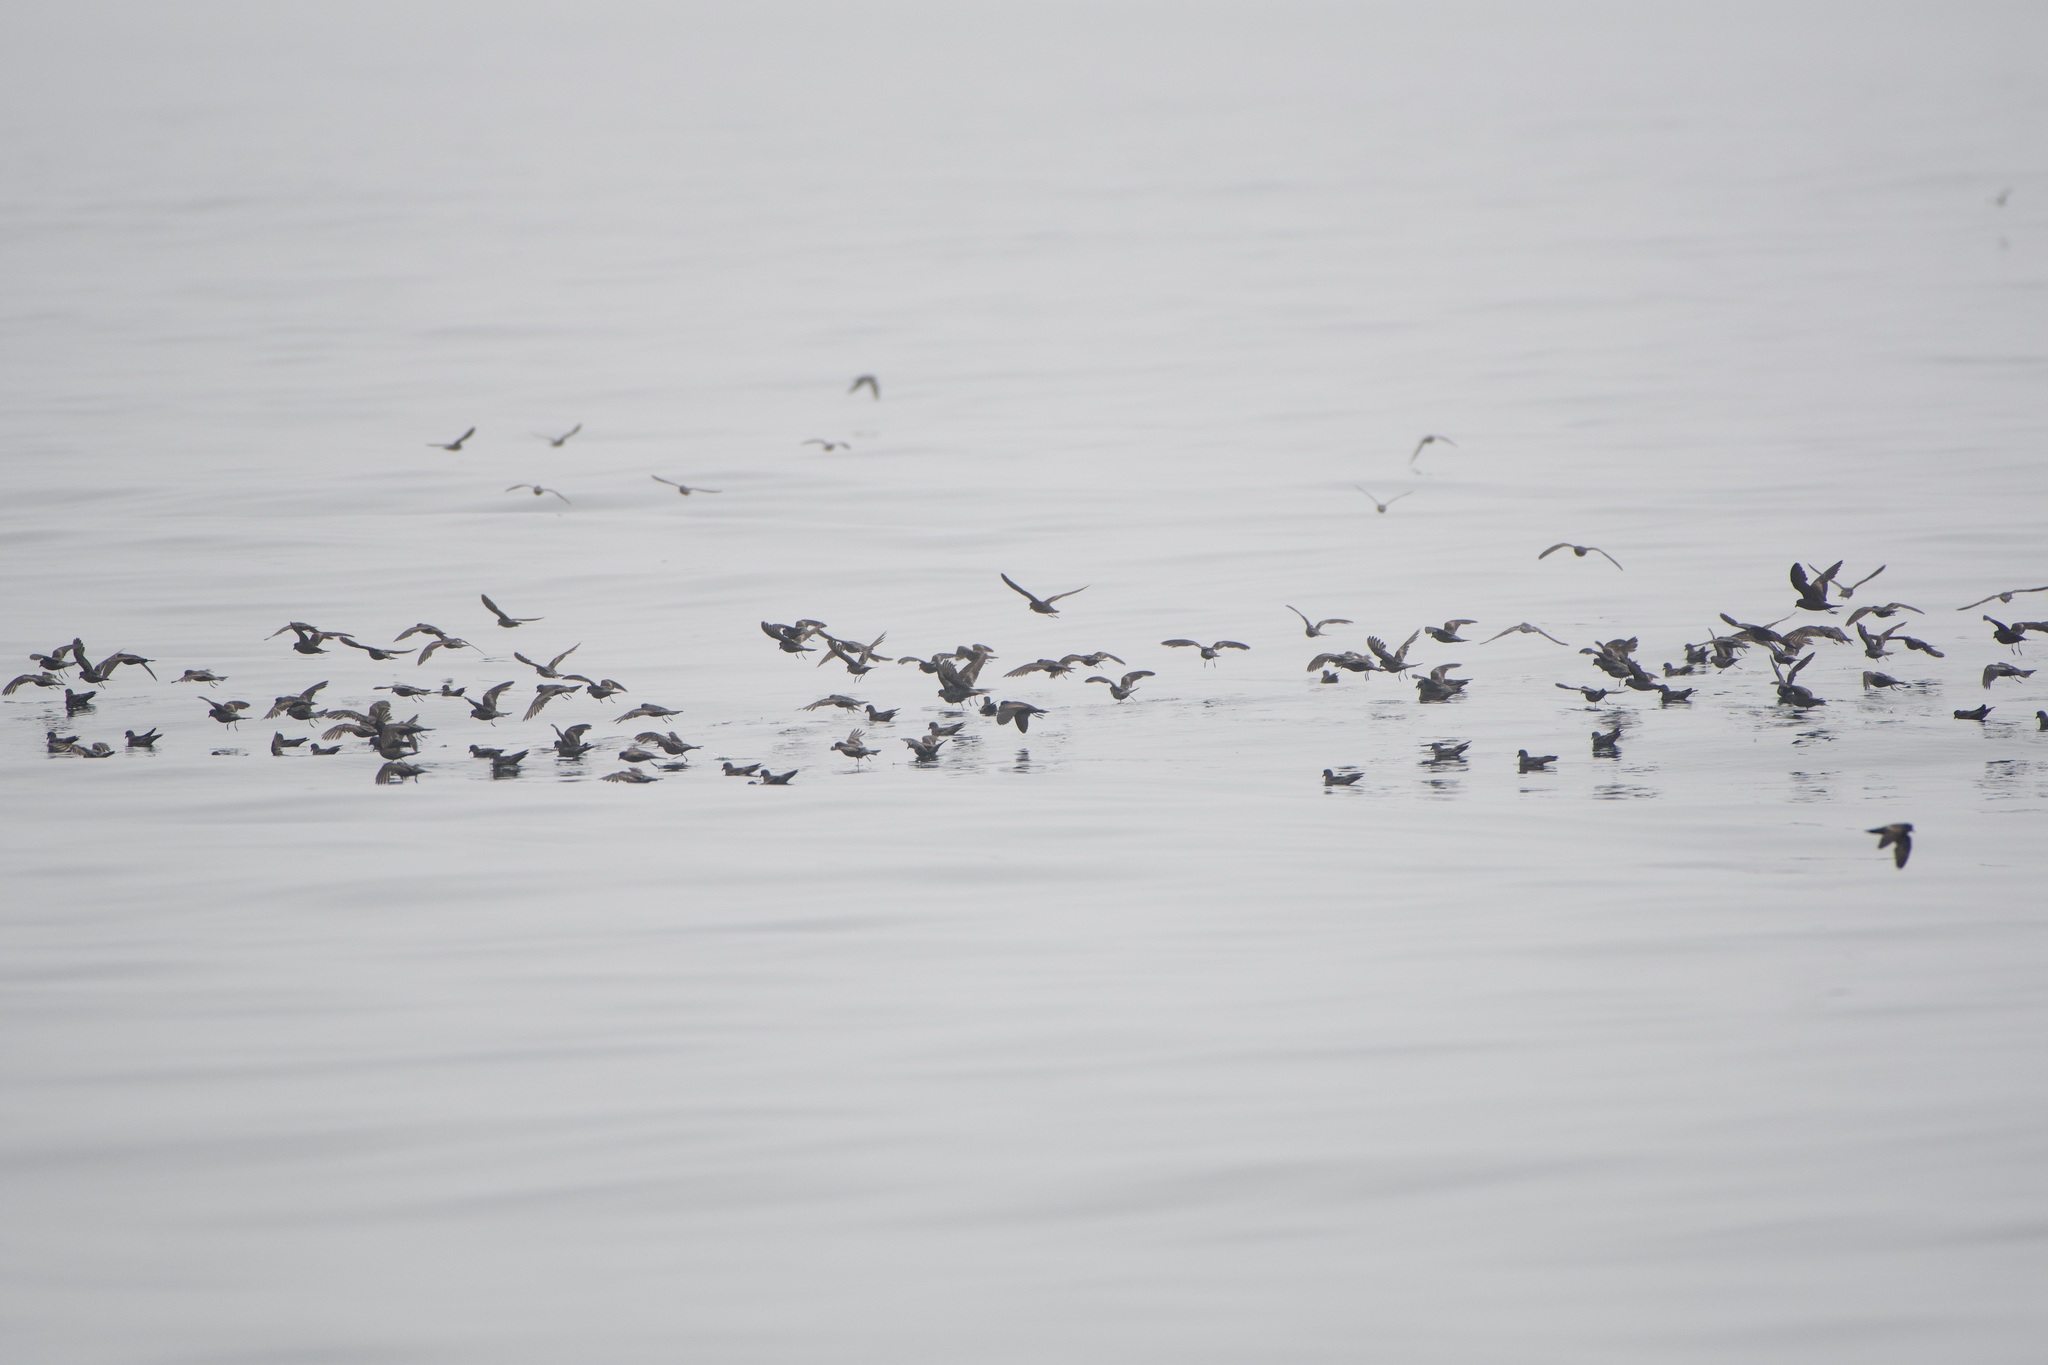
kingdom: Animalia
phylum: Chordata
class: Aves
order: Procellariiformes
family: Hydrobatidae
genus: Hydrobates
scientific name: Hydrobates homochroa
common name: Ashy storm petrel
